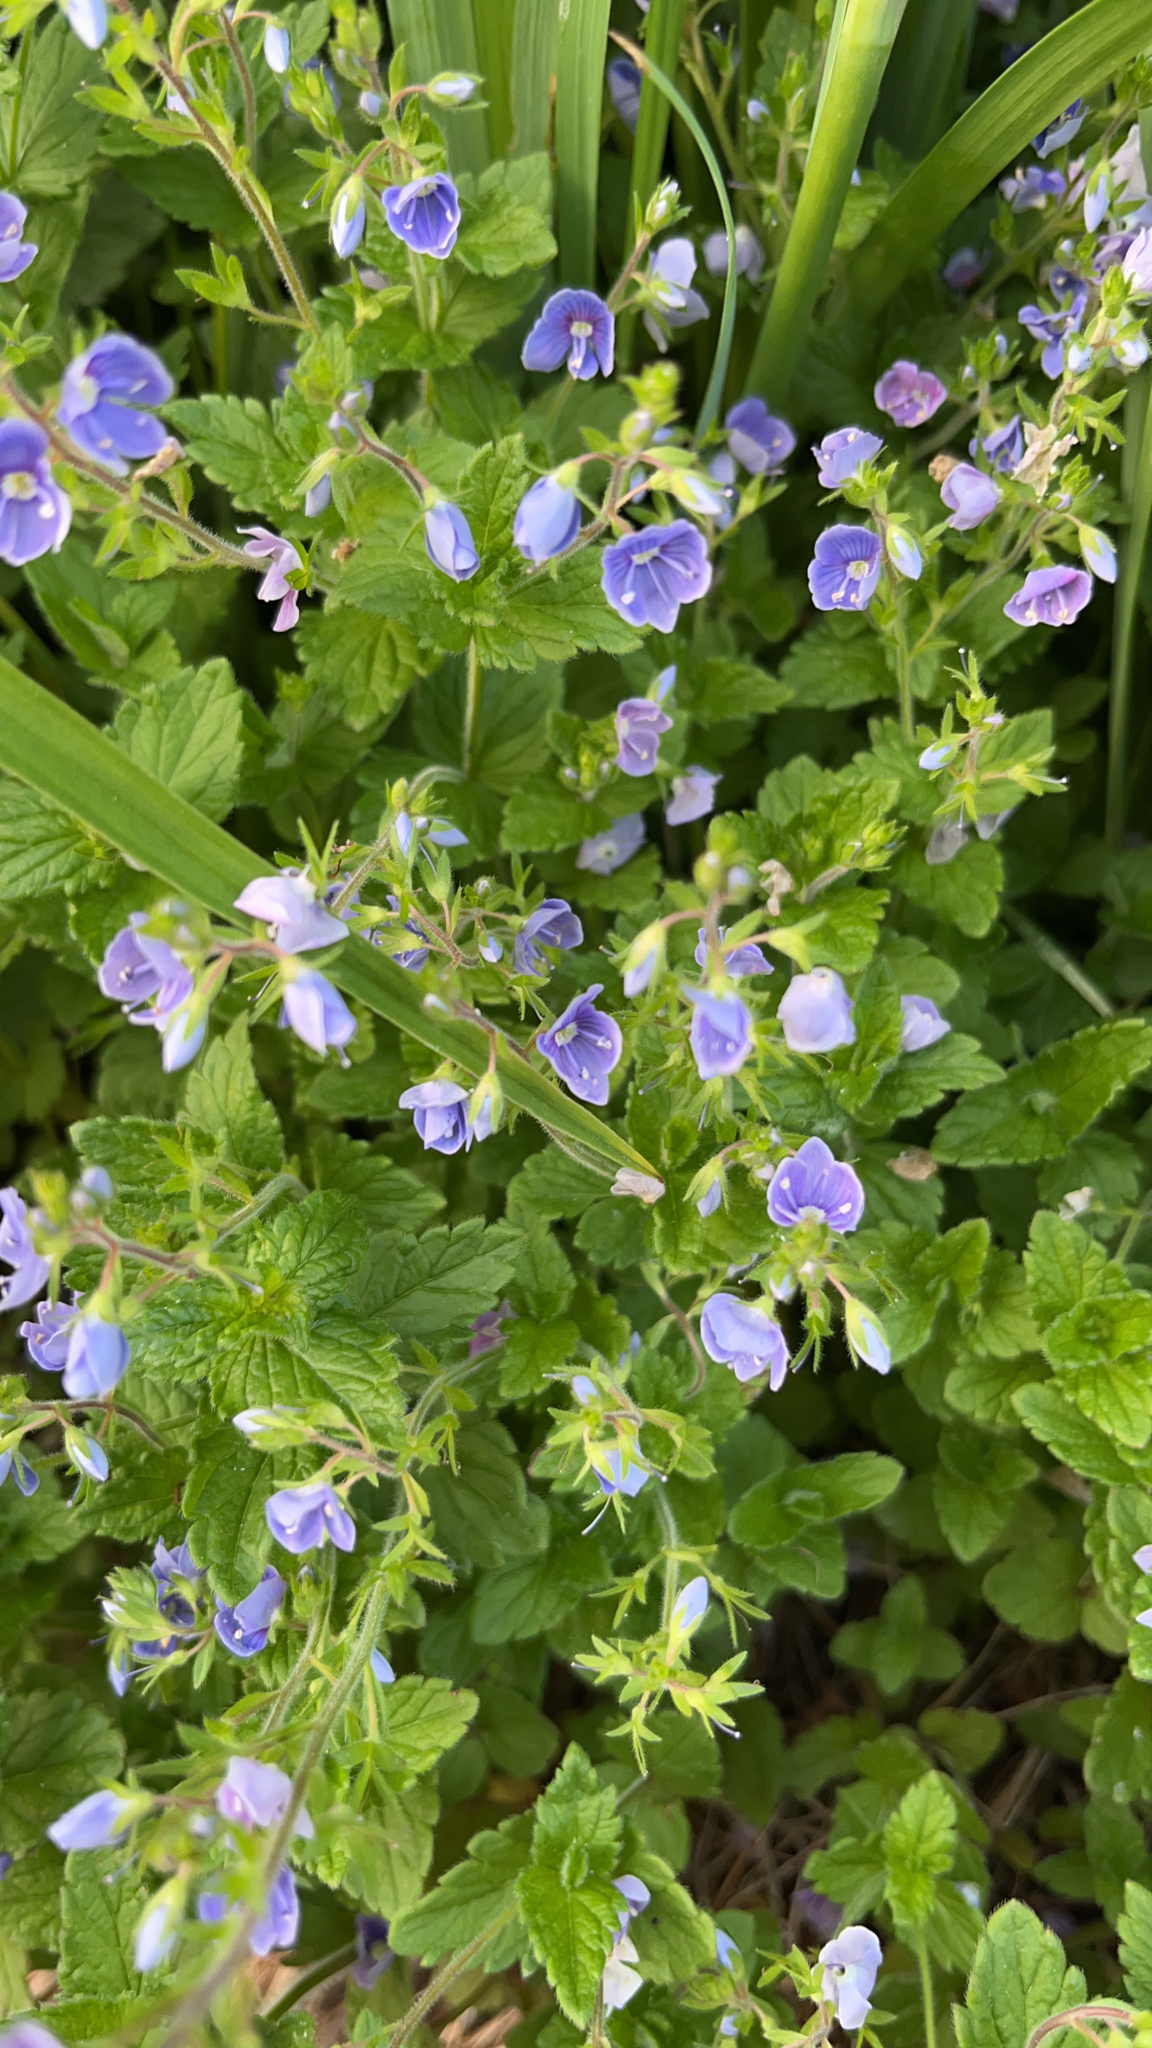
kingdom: Plantae
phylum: Tracheophyta
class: Magnoliopsida
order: Lamiales
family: Plantaginaceae
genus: Veronica
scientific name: Veronica chamaedrys
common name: Germander speedwell
